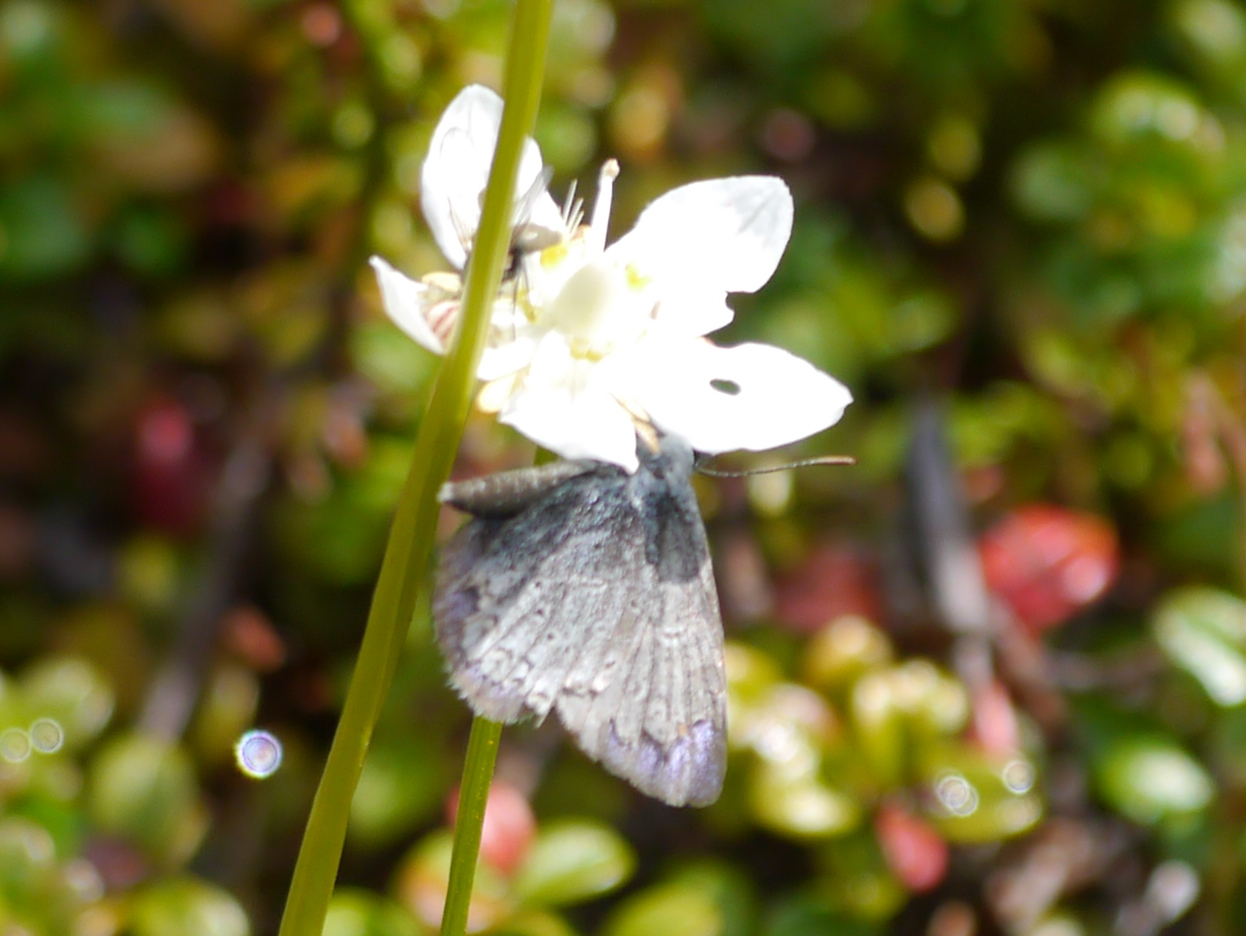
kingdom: Animalia
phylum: Arthropoda
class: Insecta
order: Lepidoptera
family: Lycaenidae
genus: Lycaeides
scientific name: Lycaeides idas
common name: Northern blue
